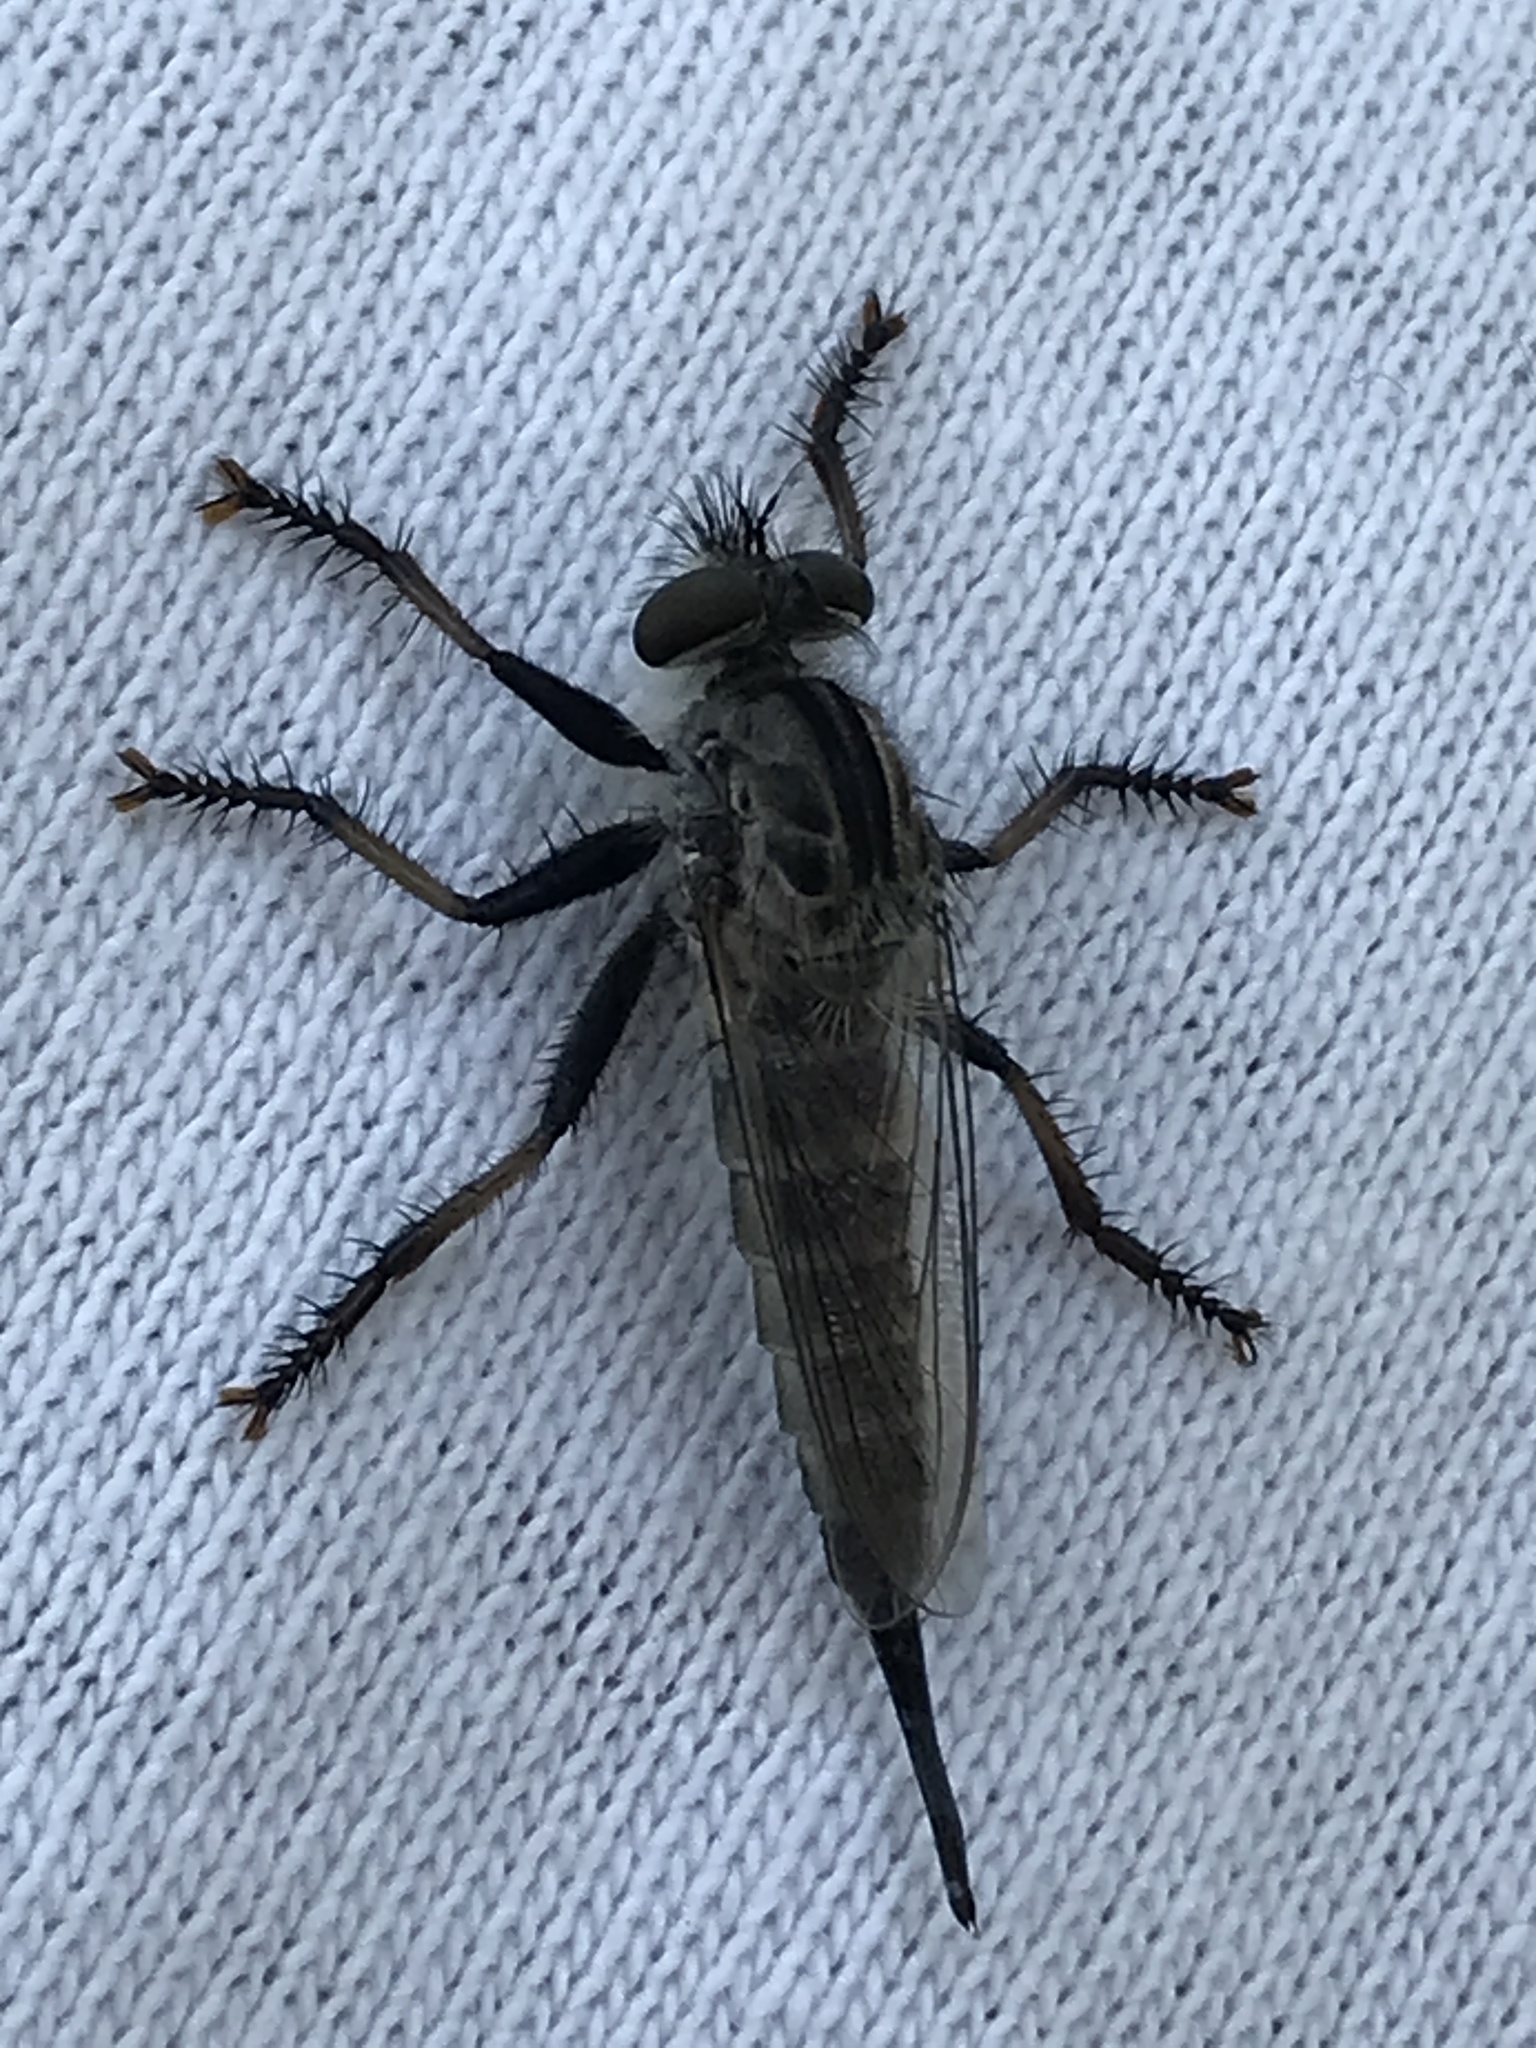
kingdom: Animalia
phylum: Arthropoda
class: Insecta
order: Diptera
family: Asilidae
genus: Efferia
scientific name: Efferia aestuans
